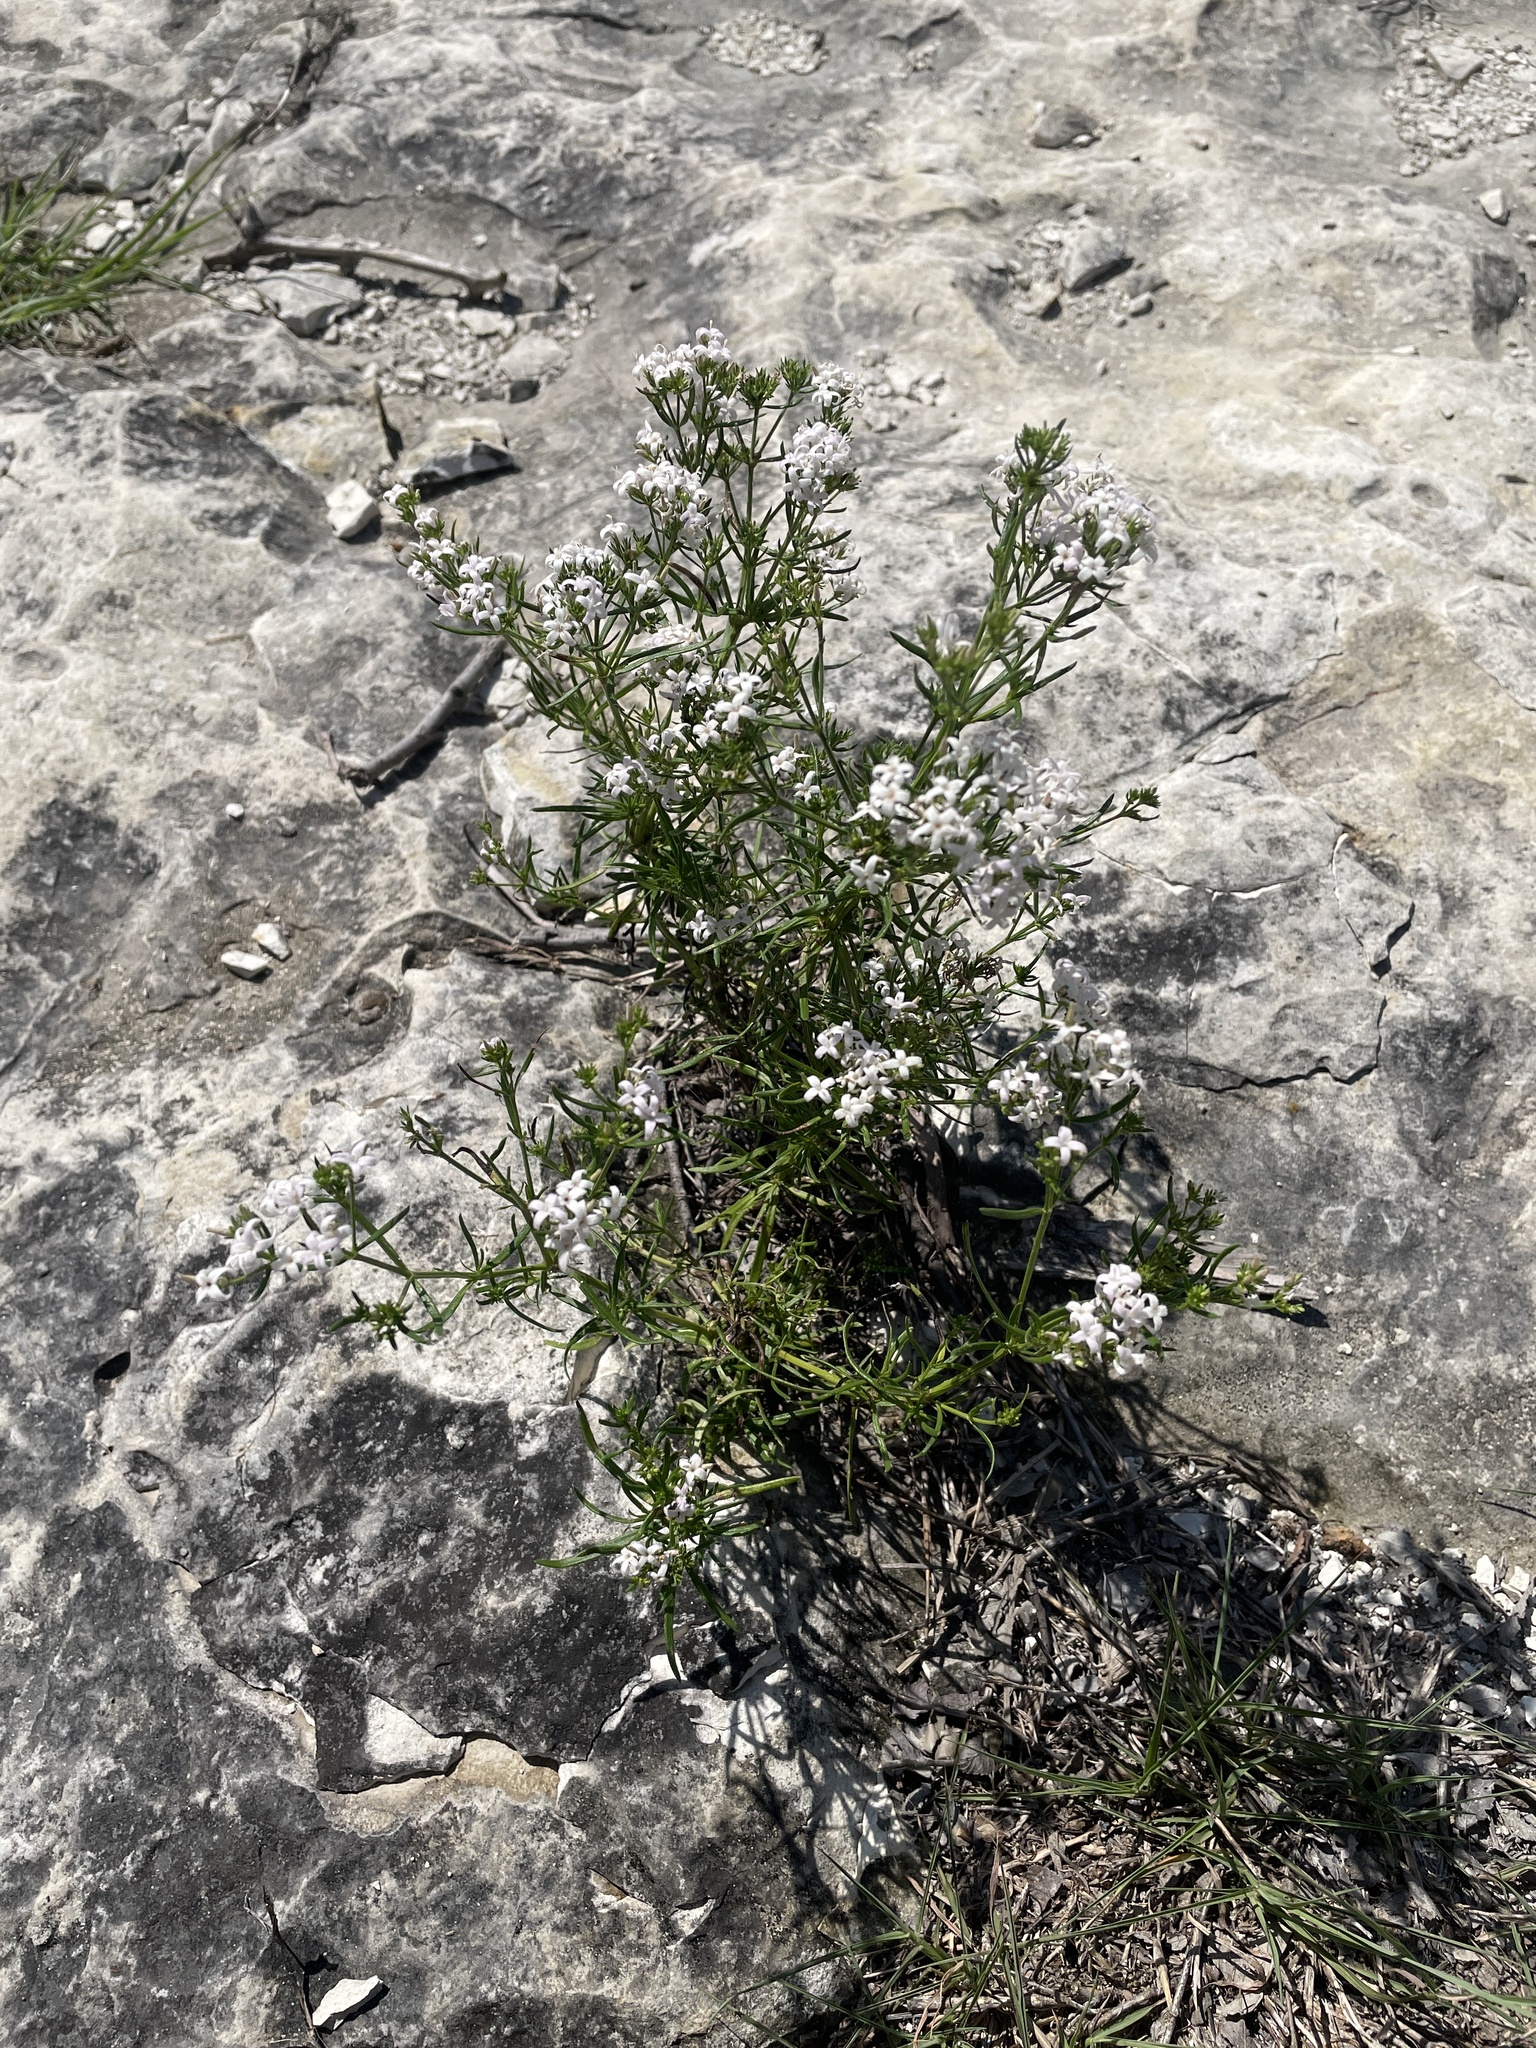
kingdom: Plantae
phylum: Tracheophyta
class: Magnoliopsida
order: Gentianales
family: Rubiaceae
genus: Stenaria
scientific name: Stenaria nigricans
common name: Diamondflowers
